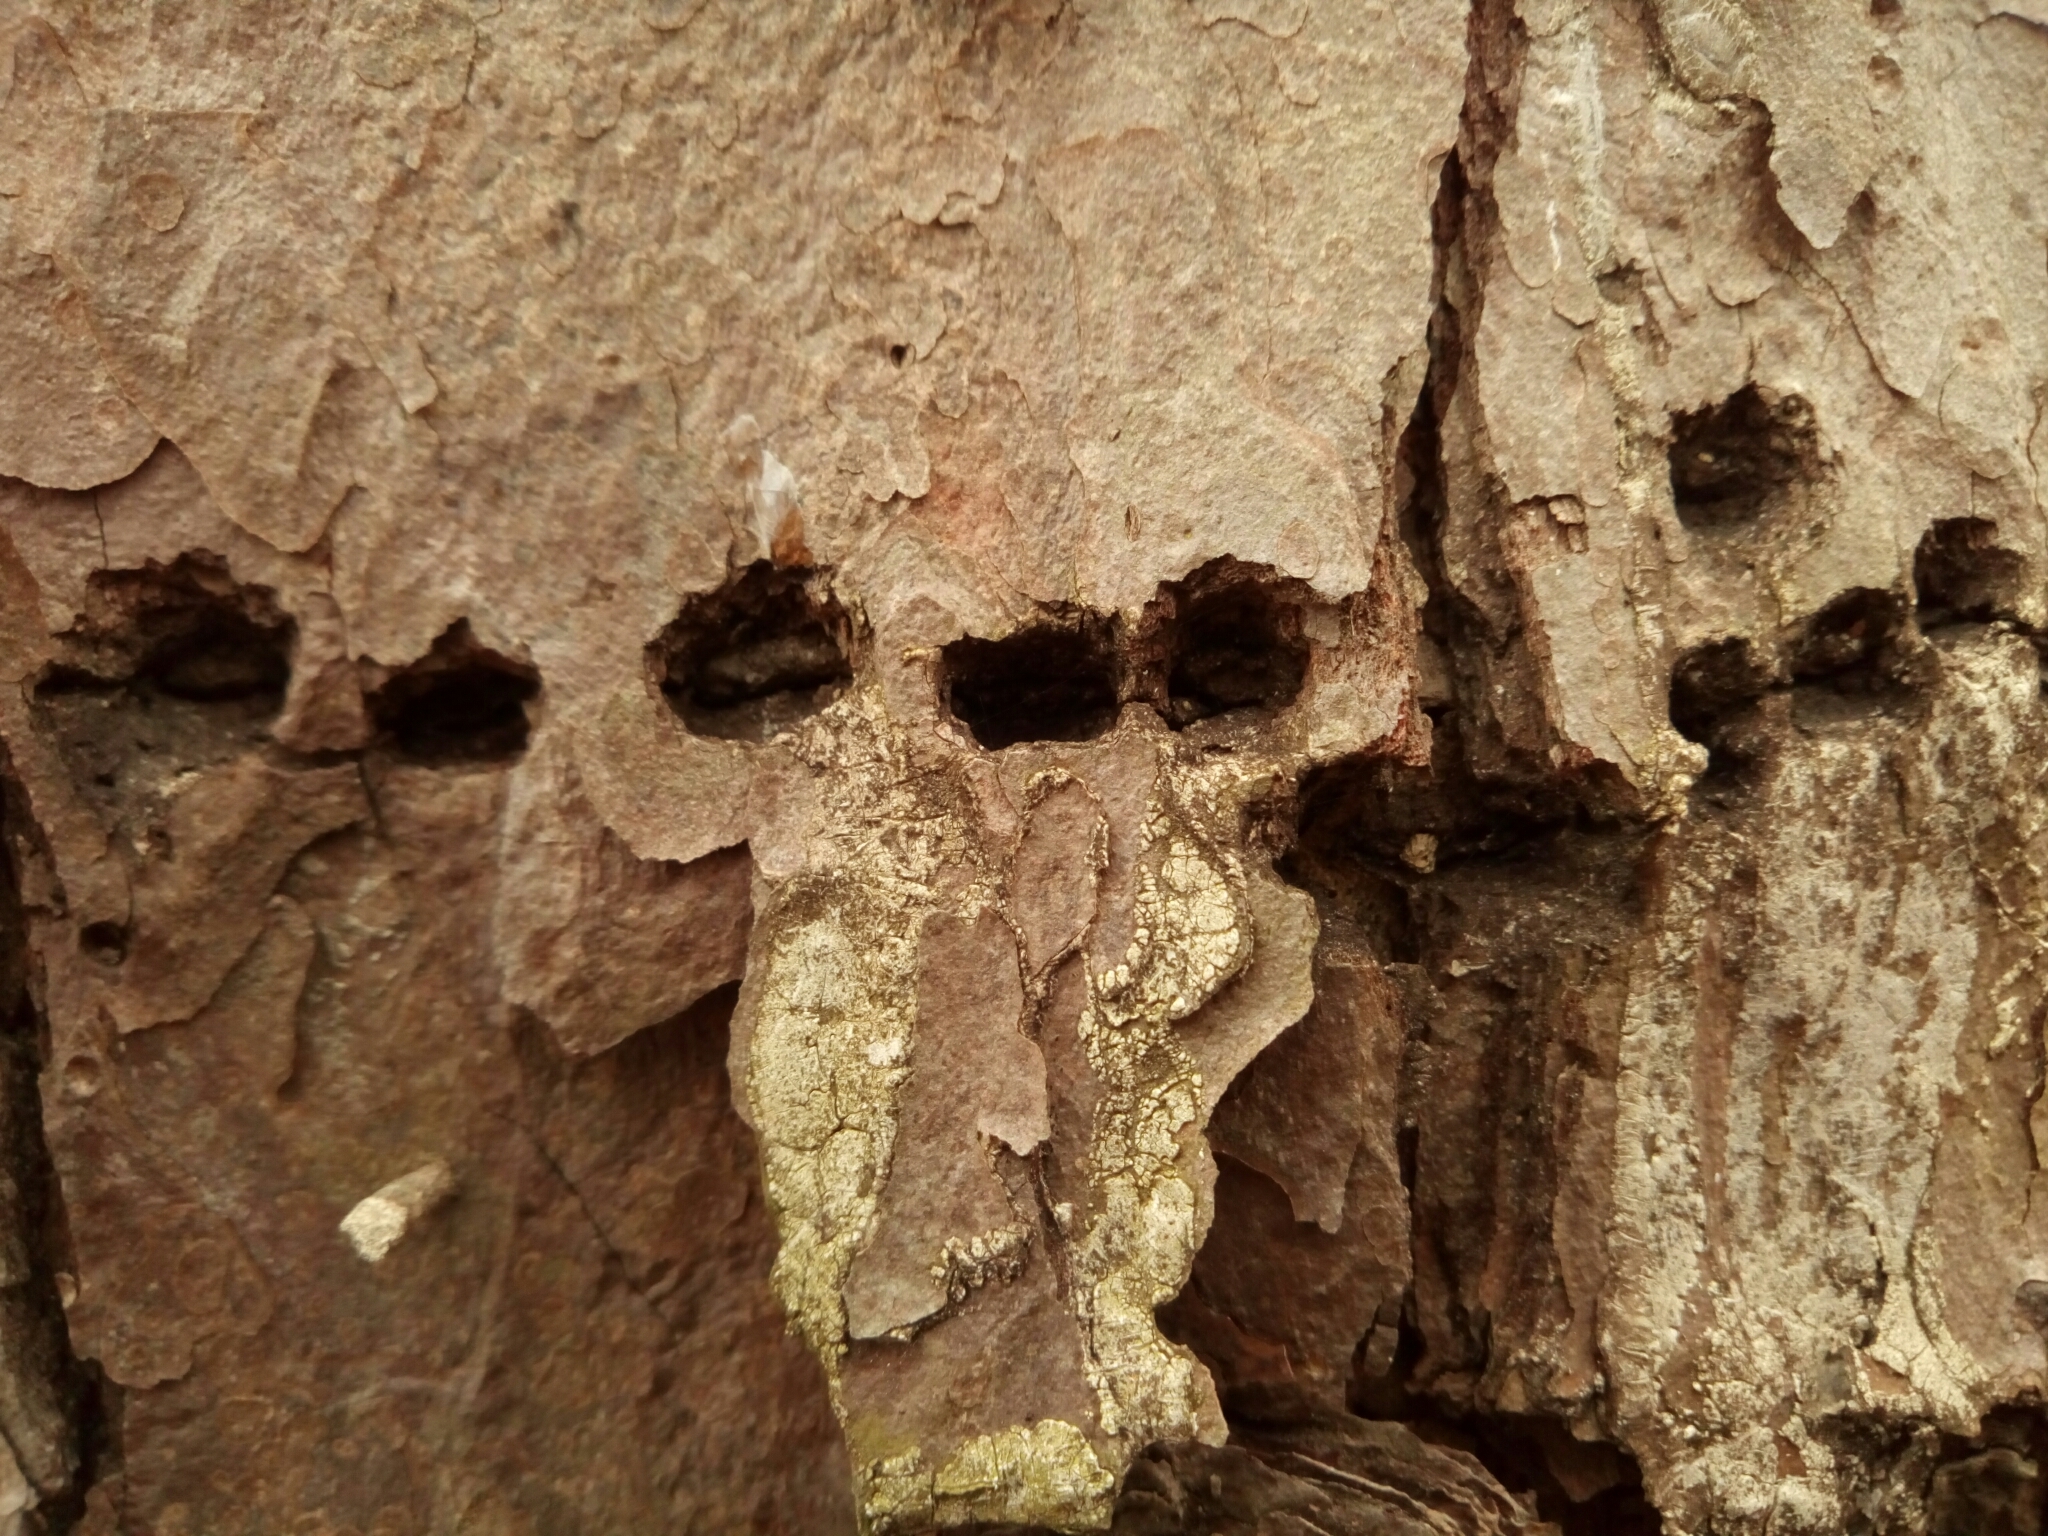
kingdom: Animalia
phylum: Chordata
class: Aves
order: Piciformes
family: Picidae
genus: Sphyrapicus
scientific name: Sphyrapicus varius
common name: Yellow-bellied sapsucker
